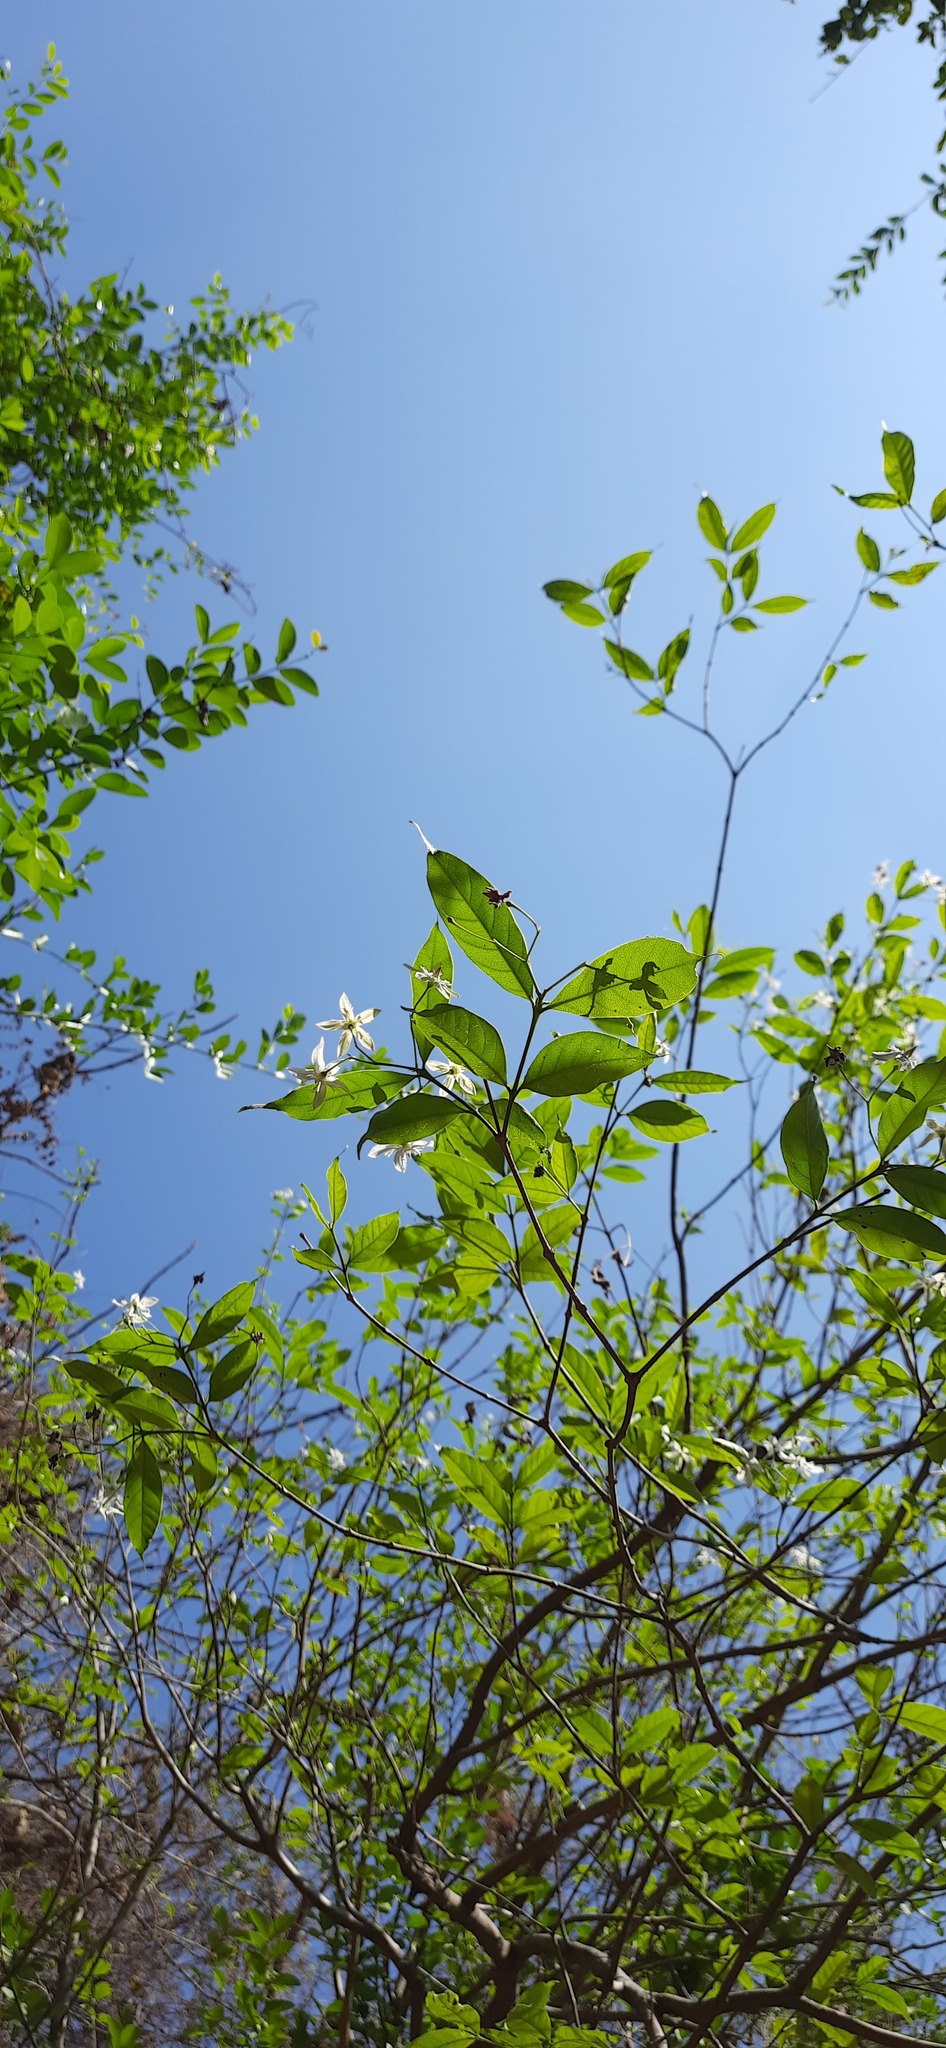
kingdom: Plantae
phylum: Tracheophyta
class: Magnoliopsida
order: Gentianales
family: Apocynaceae
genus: Wrightia
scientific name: Wrightia tinctoria
